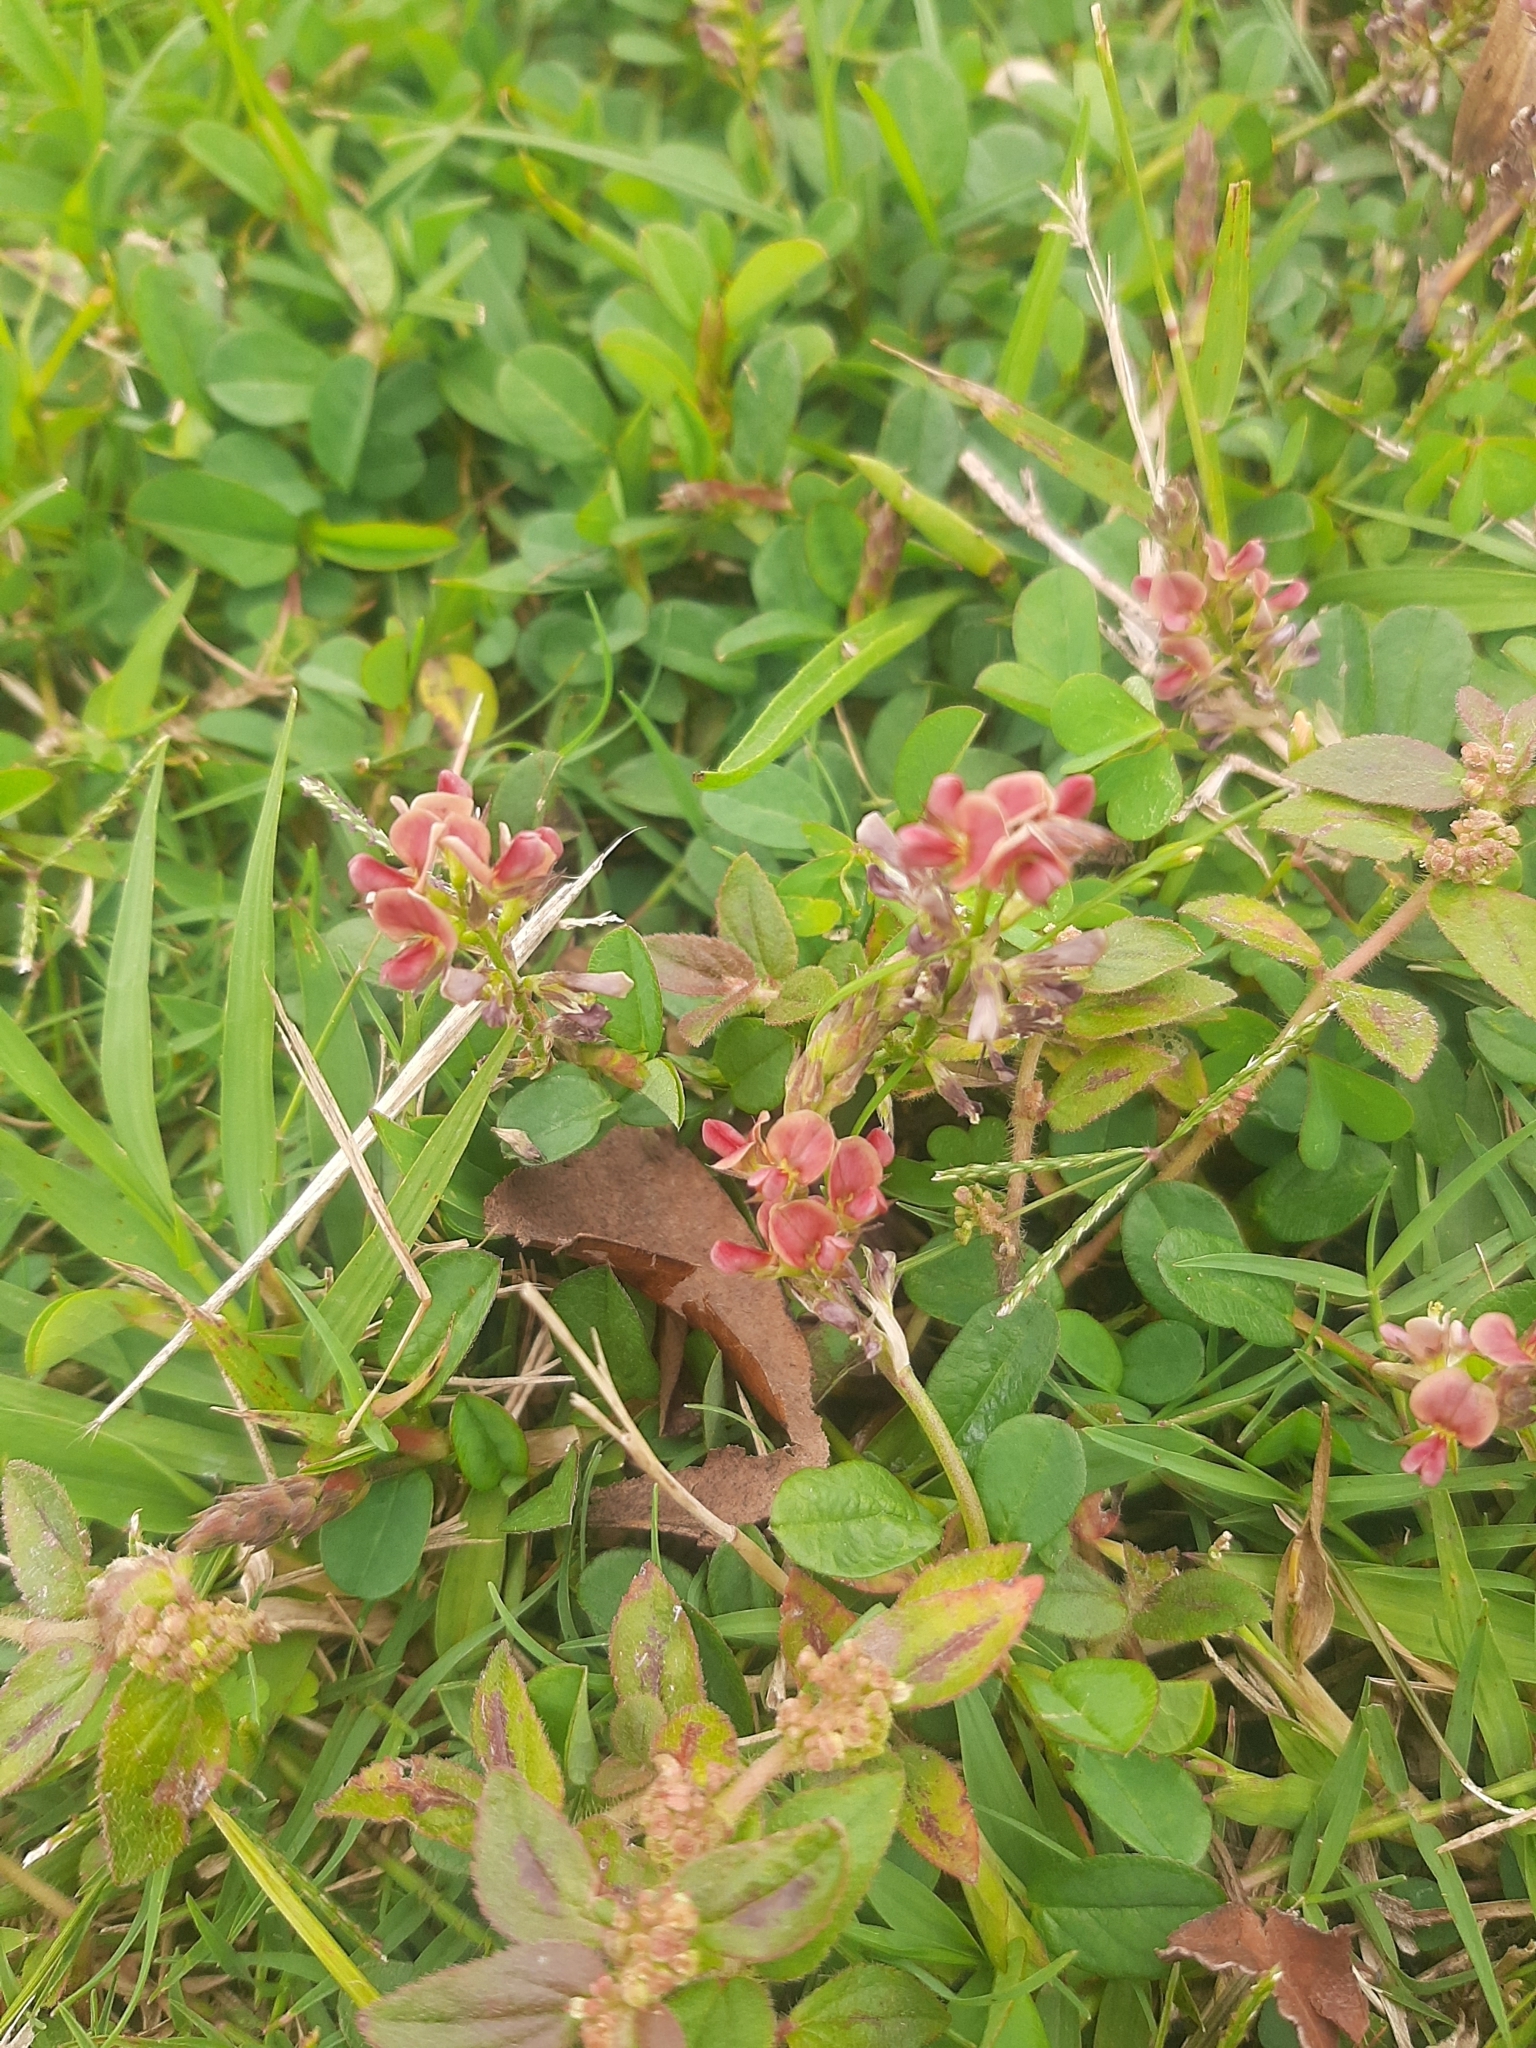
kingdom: Plantae
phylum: Tracheophyta
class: Magnoliopsida
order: Fabales
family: Fabaceae
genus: Alysicarpus
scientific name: Alysicarpus vaginalis
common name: White moneywort
